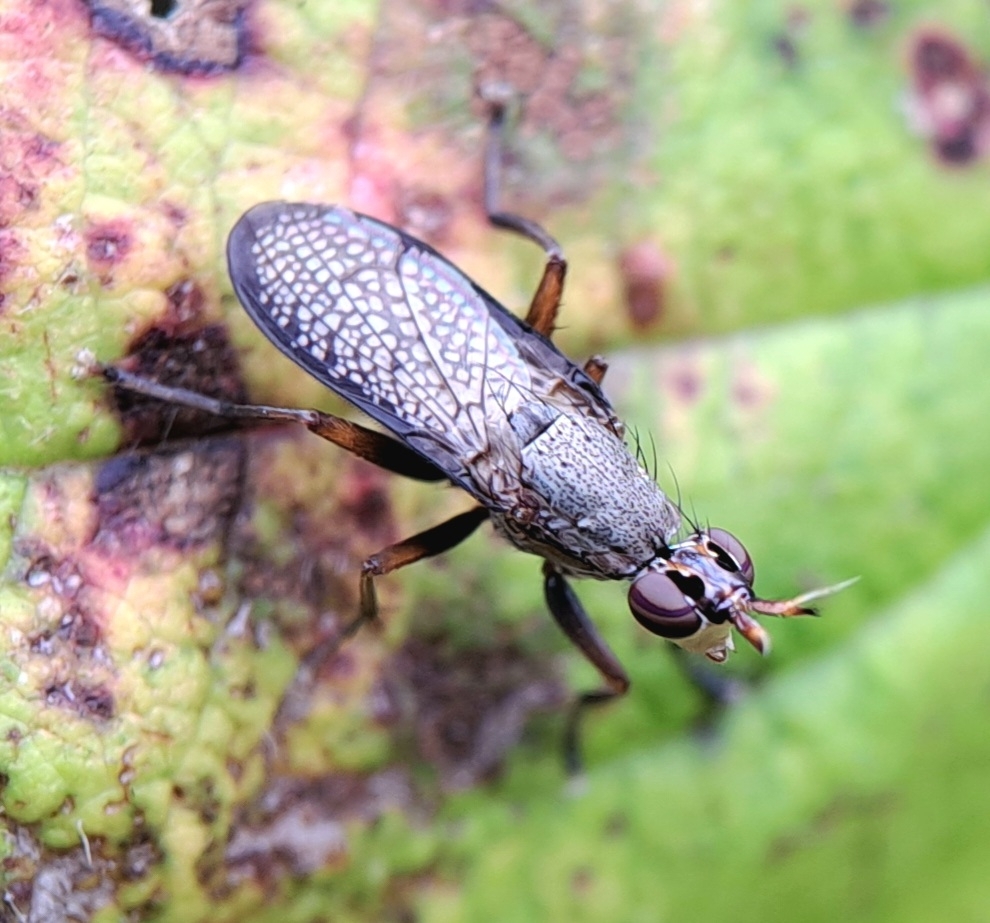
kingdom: Animalia
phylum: Arthropoda
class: Insecta
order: Diptera
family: Sciomyzidae
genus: Coremacera
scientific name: Coremacera marginata
